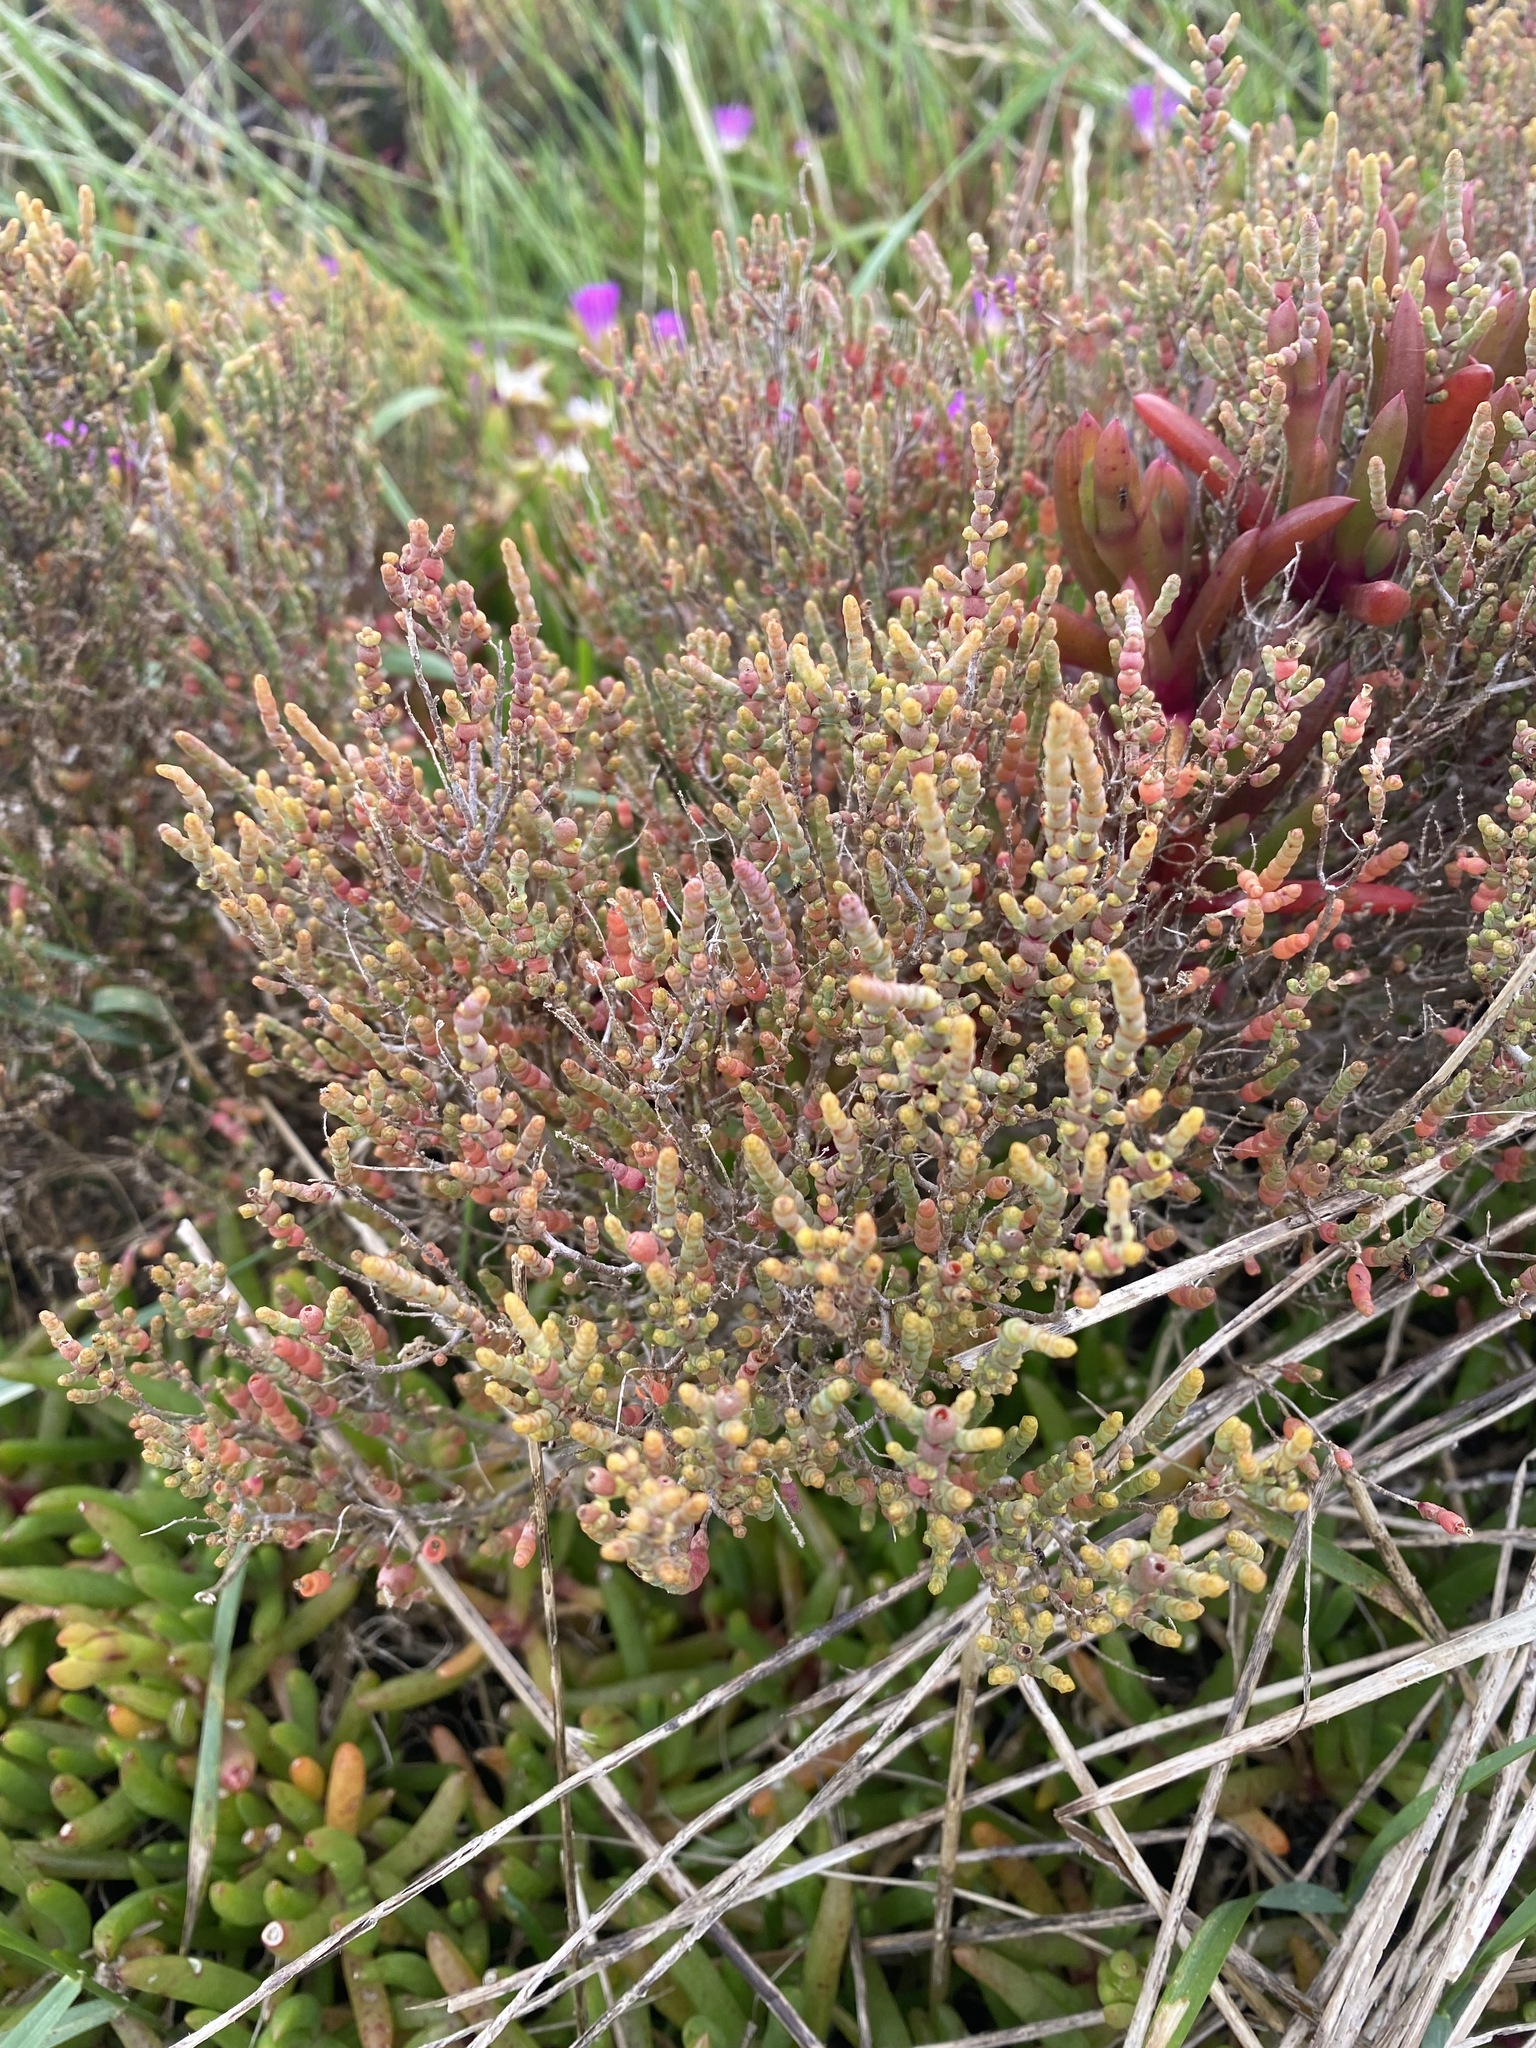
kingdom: Plantae
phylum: Tracheophyta
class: Magnoliopsida
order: Caryophyllales
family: Amaranthaceae
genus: Tecticornia
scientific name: Tecticornia arbuscula
